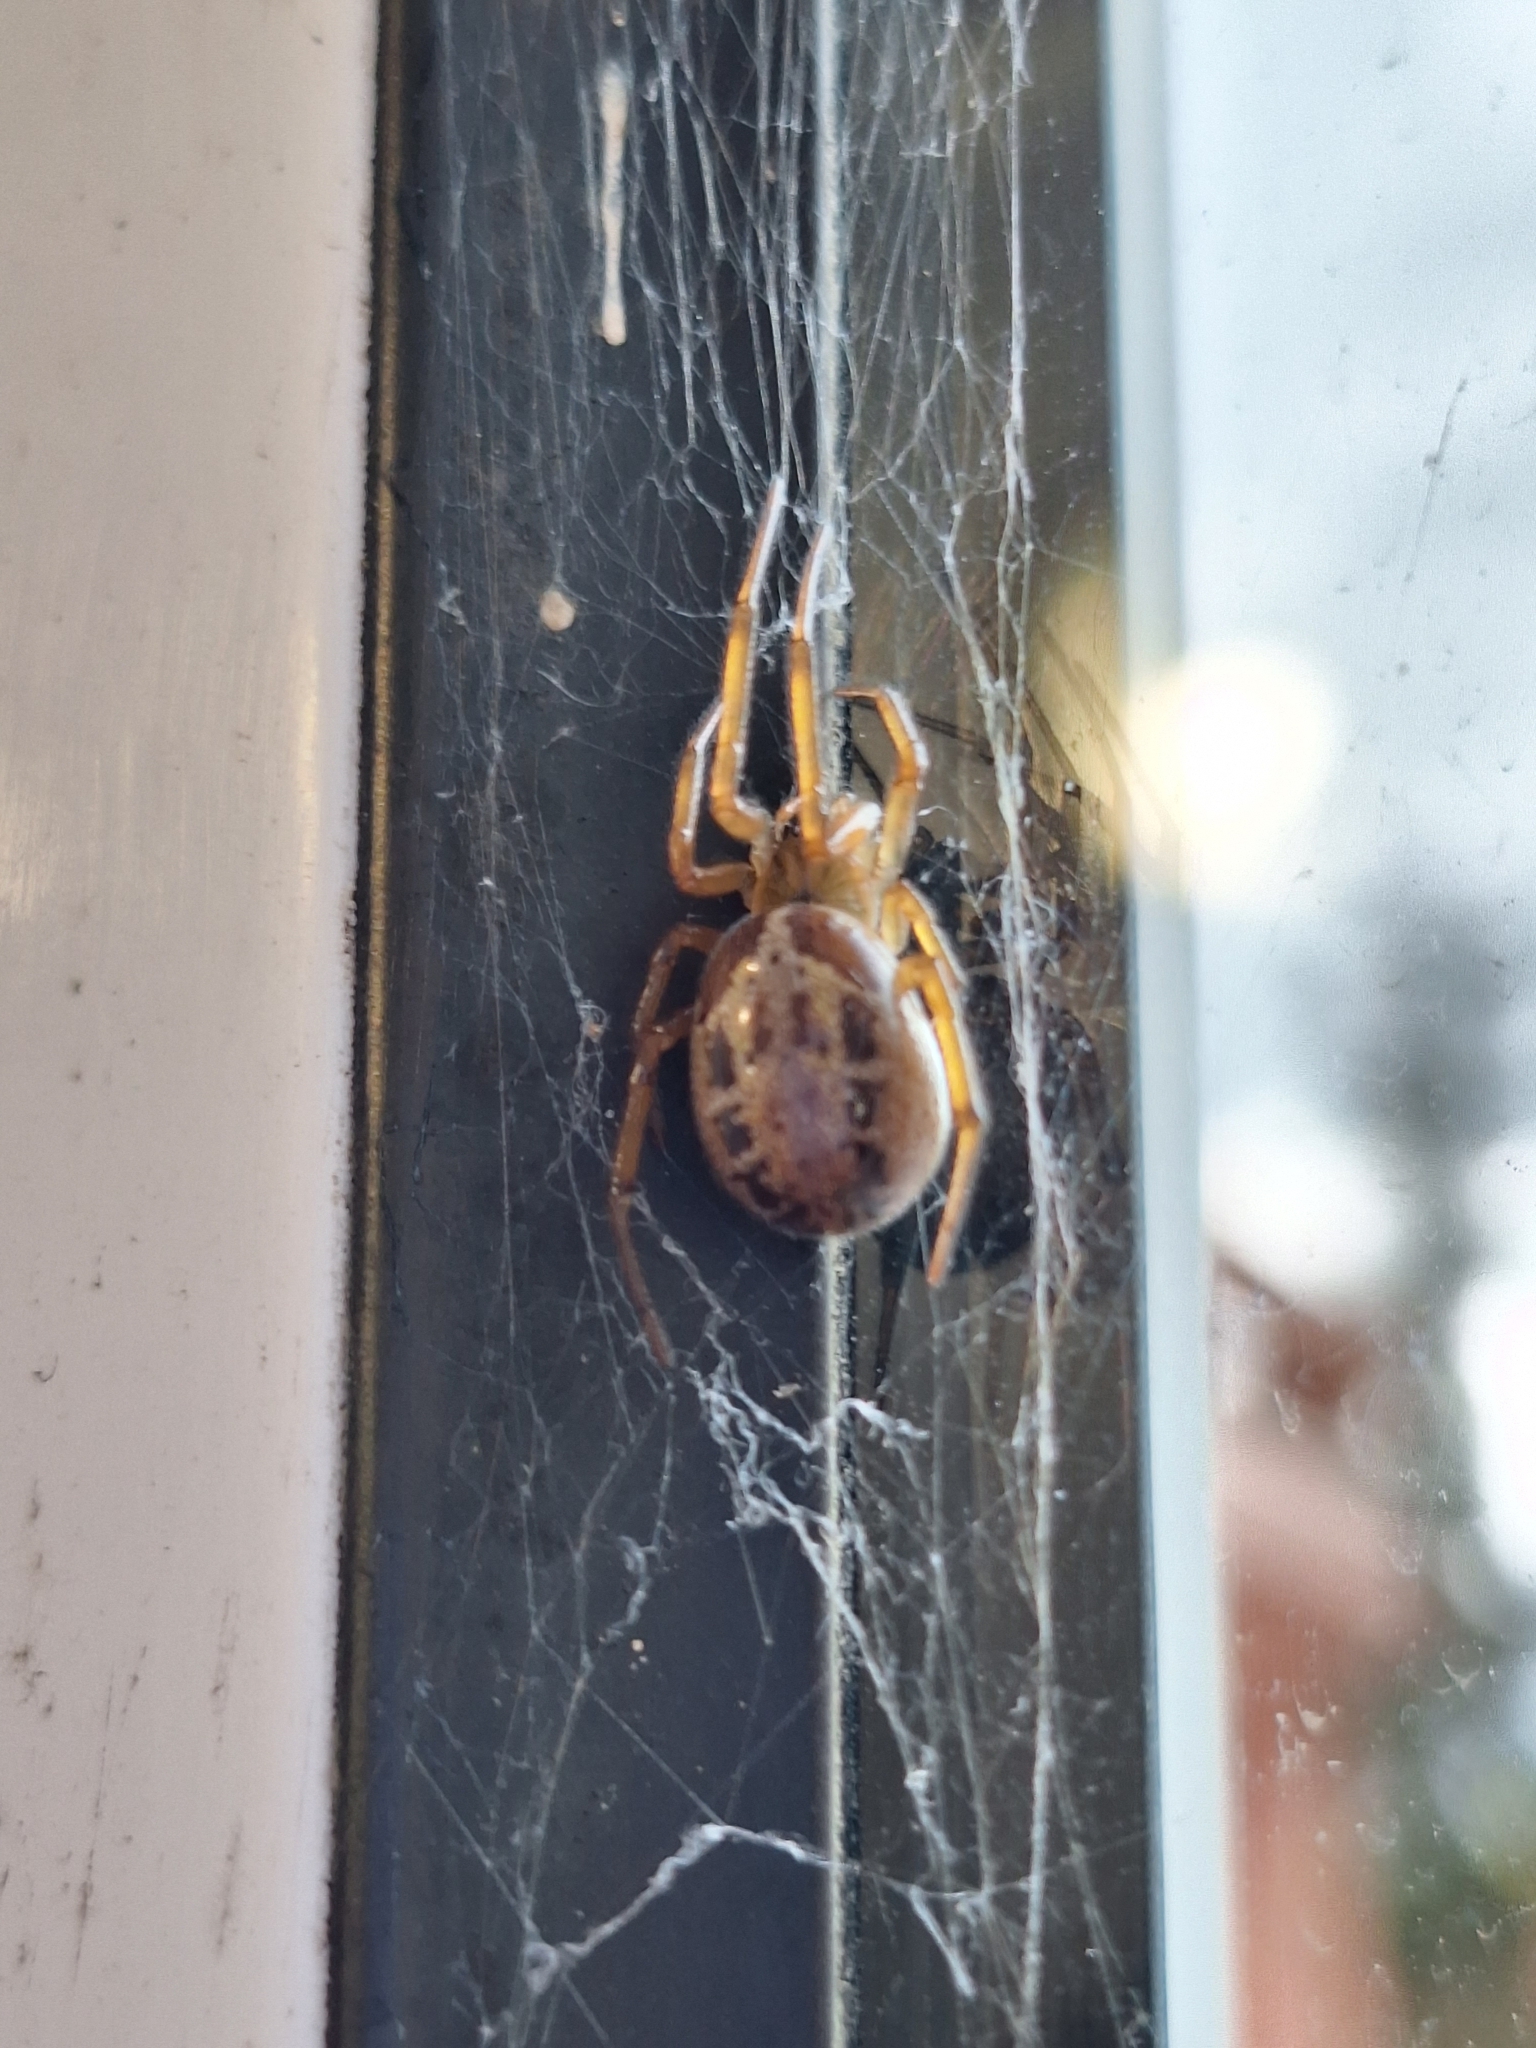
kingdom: Animalia
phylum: Arthropoda
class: Arachnida
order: Araneae
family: Theridiidae
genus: Steatoda
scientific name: Steatoda nobilis
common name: Cobweb weaver
